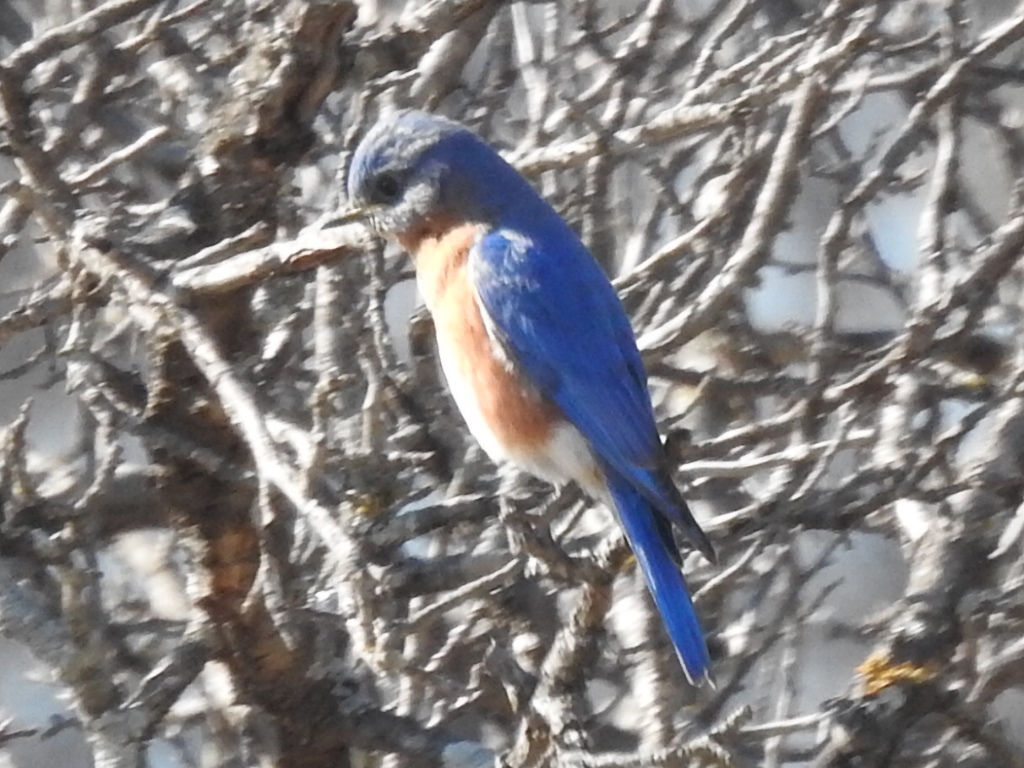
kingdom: Animalia
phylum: Chordata
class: Aves
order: Passeriformes
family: Turdidae
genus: Sialia
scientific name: Sialia sialis
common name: Eastern bluebird
